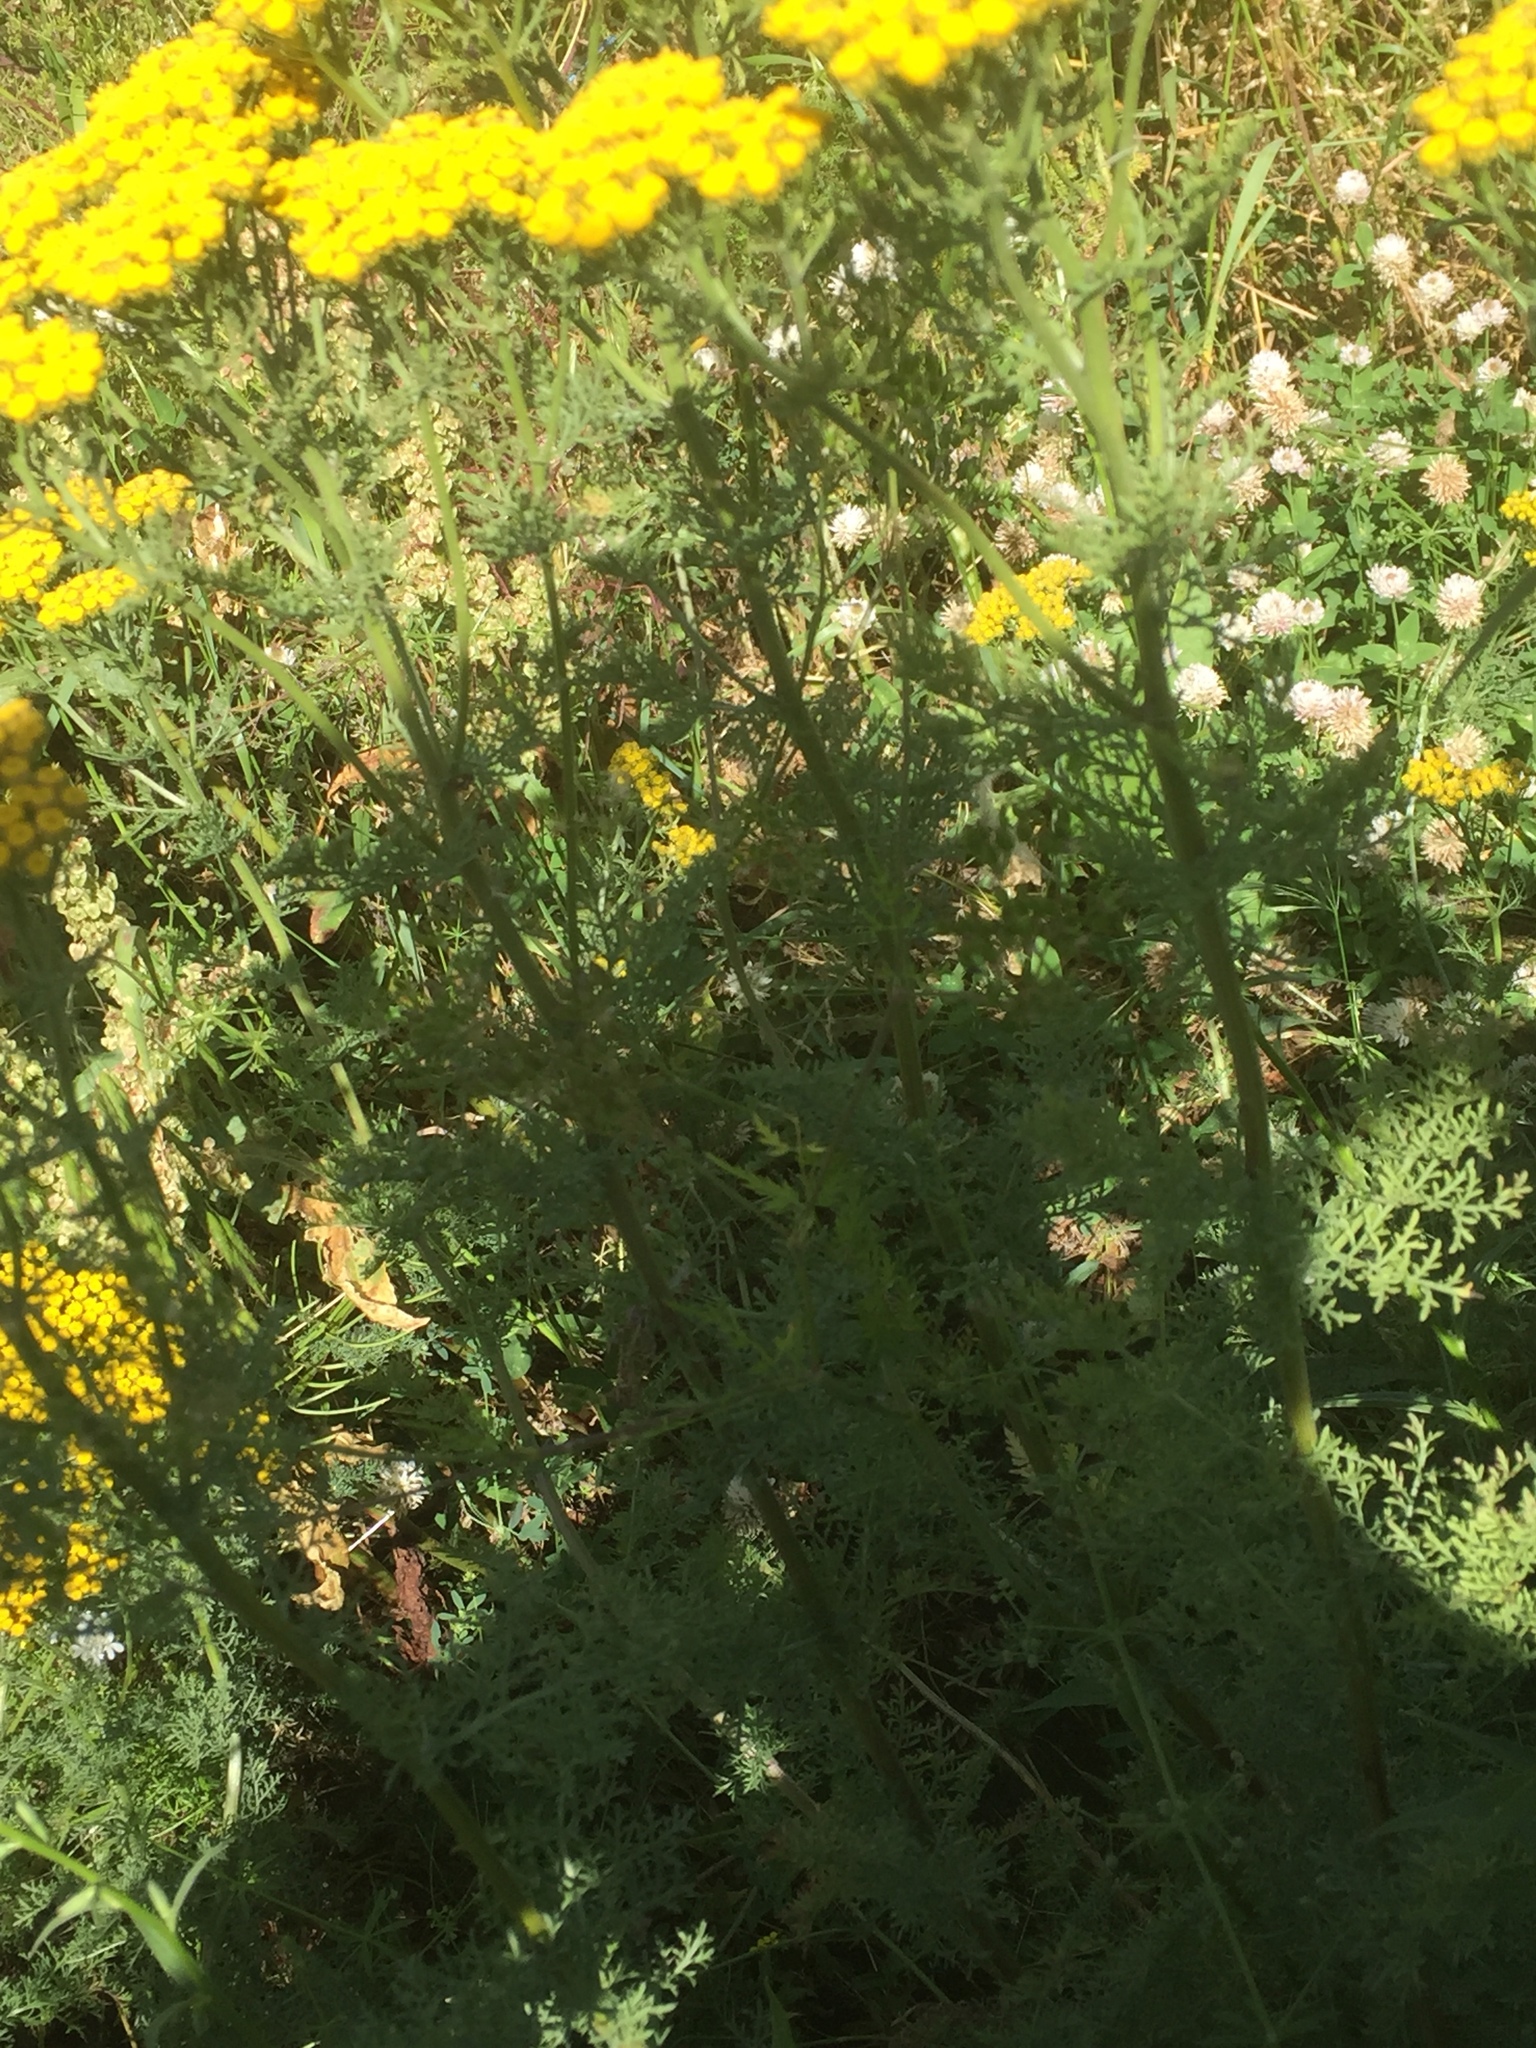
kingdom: Plantae
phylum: Tracheophyta
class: Magnoliopsida
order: Asterales
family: Asteraceae
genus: Tanacetum
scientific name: Tanacetum vulgare
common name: Common tansy
